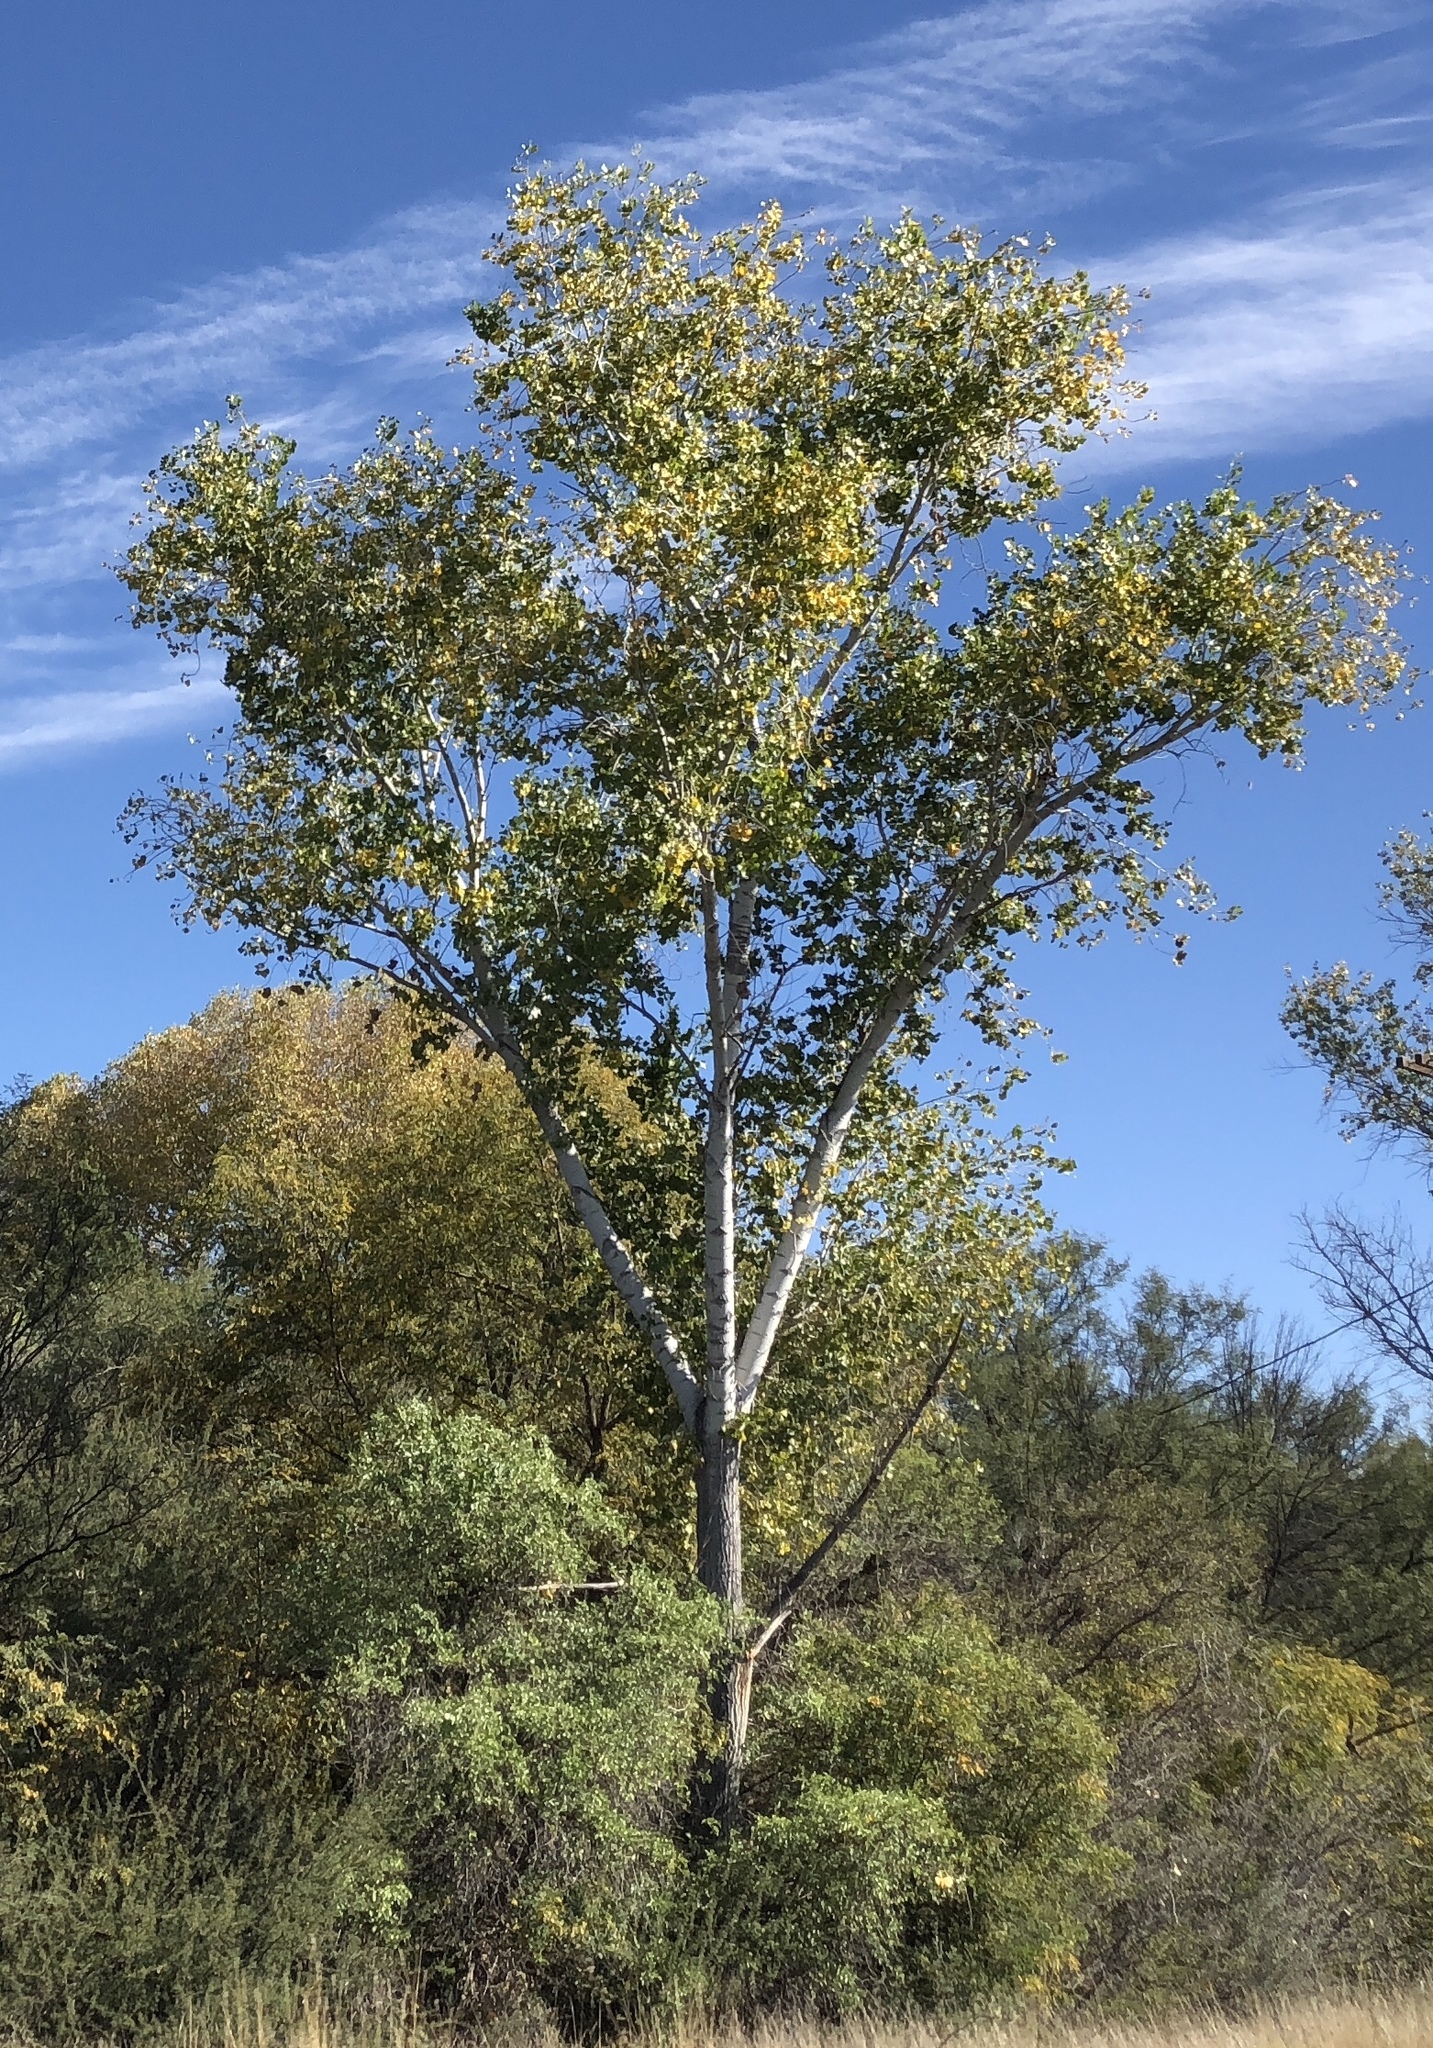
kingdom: Plantae
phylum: Tracheophyta
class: Magnoliopsida
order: Malpighiales
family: Salicaceae
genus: Populus
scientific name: Populus fremontii
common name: Fremont's cottonwood
